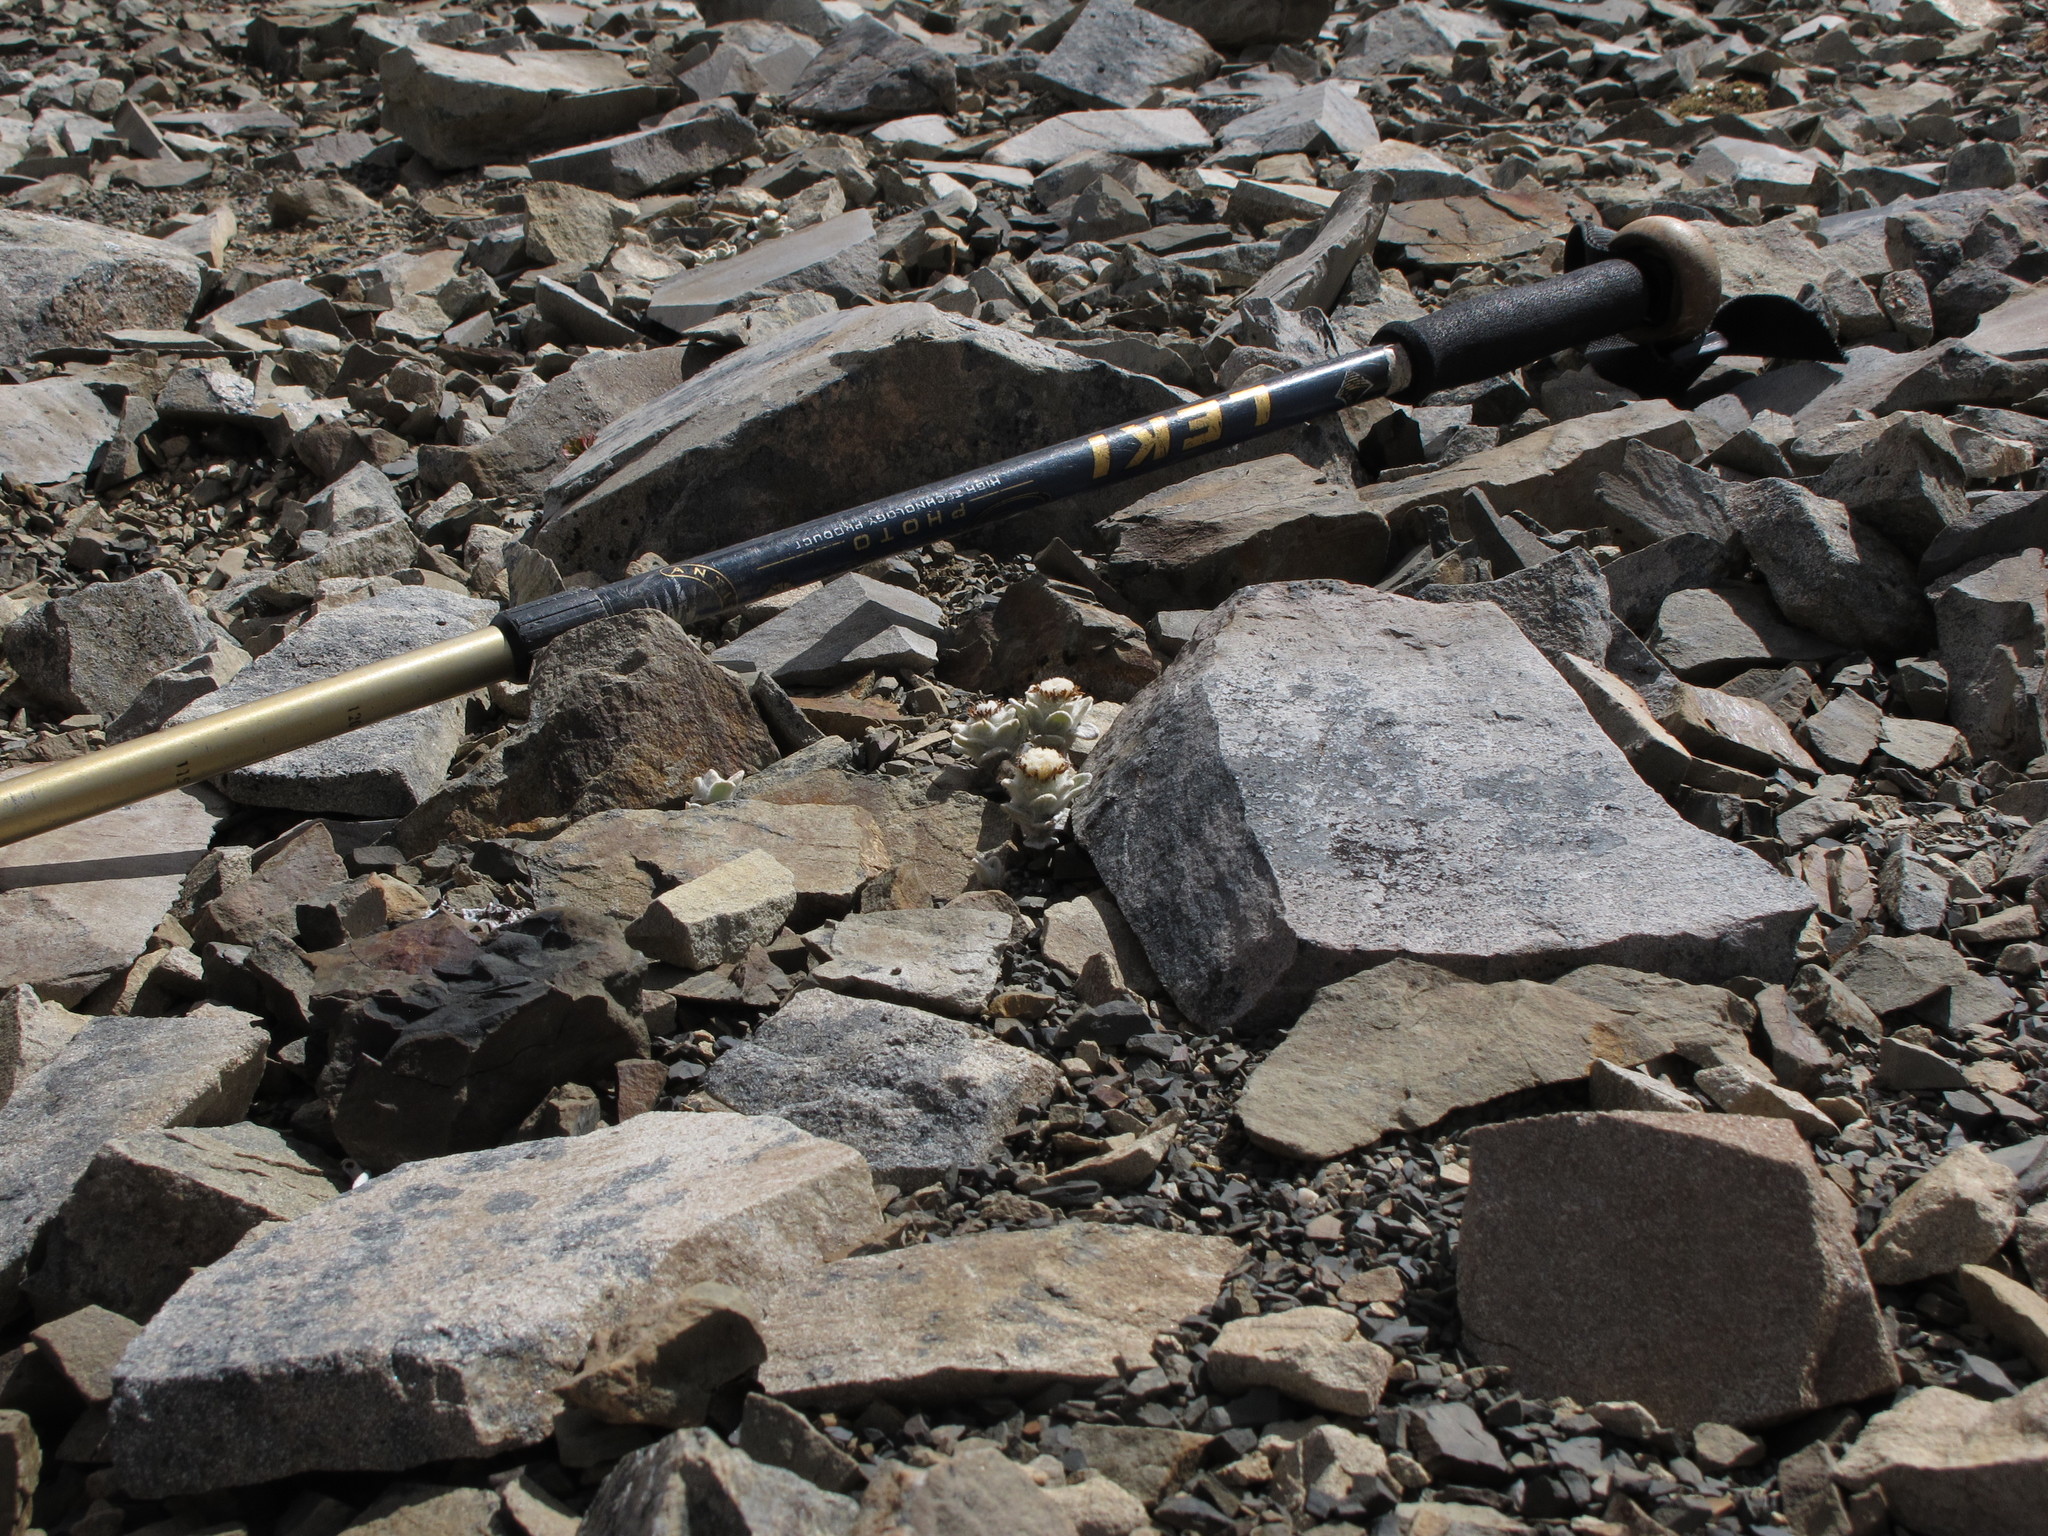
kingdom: Plantae
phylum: Tracheophyta
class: Magnoliopsida
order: Asterales
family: Asteraceae
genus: Haastia
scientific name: Haastia sinclairii
